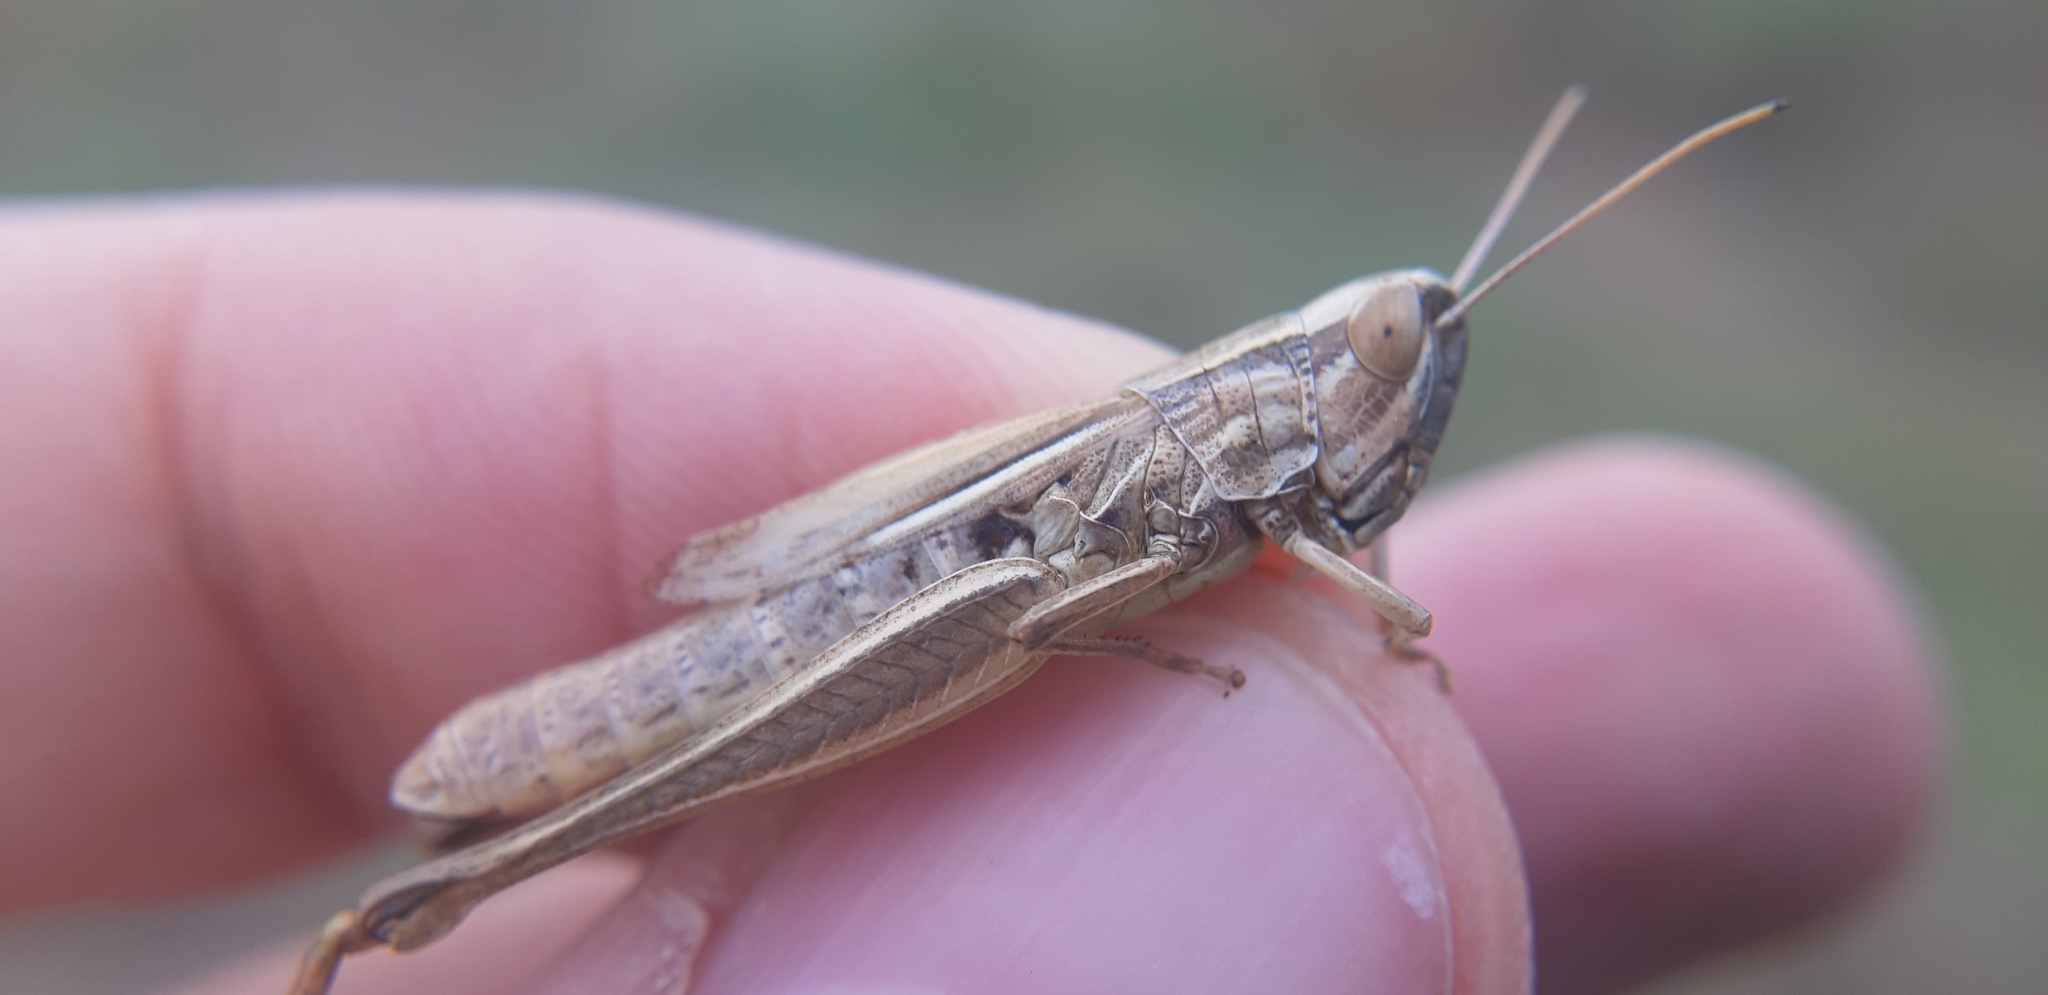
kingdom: Animalia
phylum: Arthropoda
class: Insecta
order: Orthoptera
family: Acrididae
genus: Euchorthippus
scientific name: Euchorthippus declivus
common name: Common straw grasshopper
